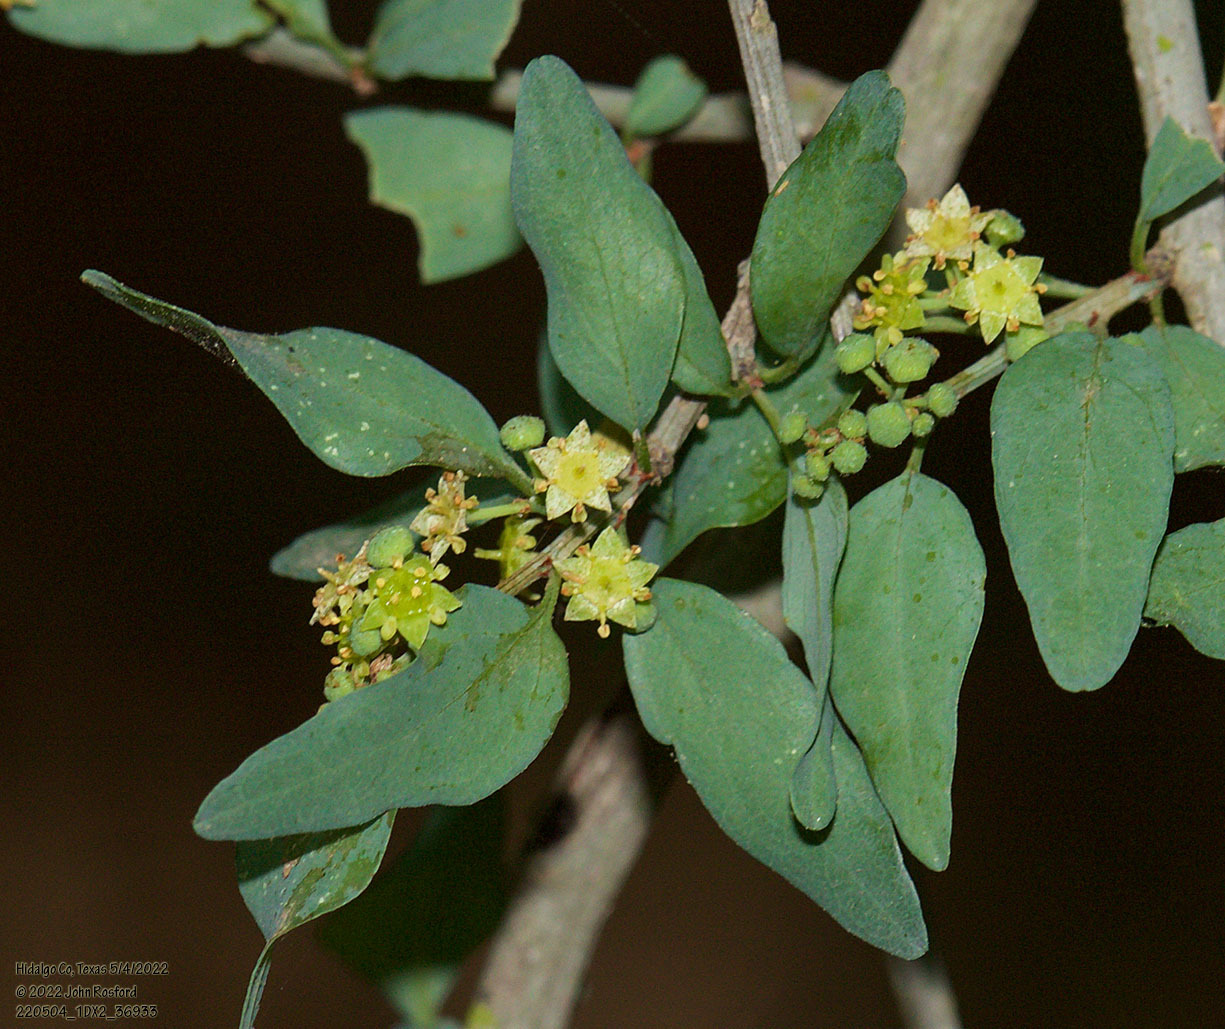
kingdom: Plantae
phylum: Tracheophyta
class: Magnoliopsida
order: Rosales
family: Rhamnaceae
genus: Sarcomphalus
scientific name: Sarcomphalus obtusifolius
